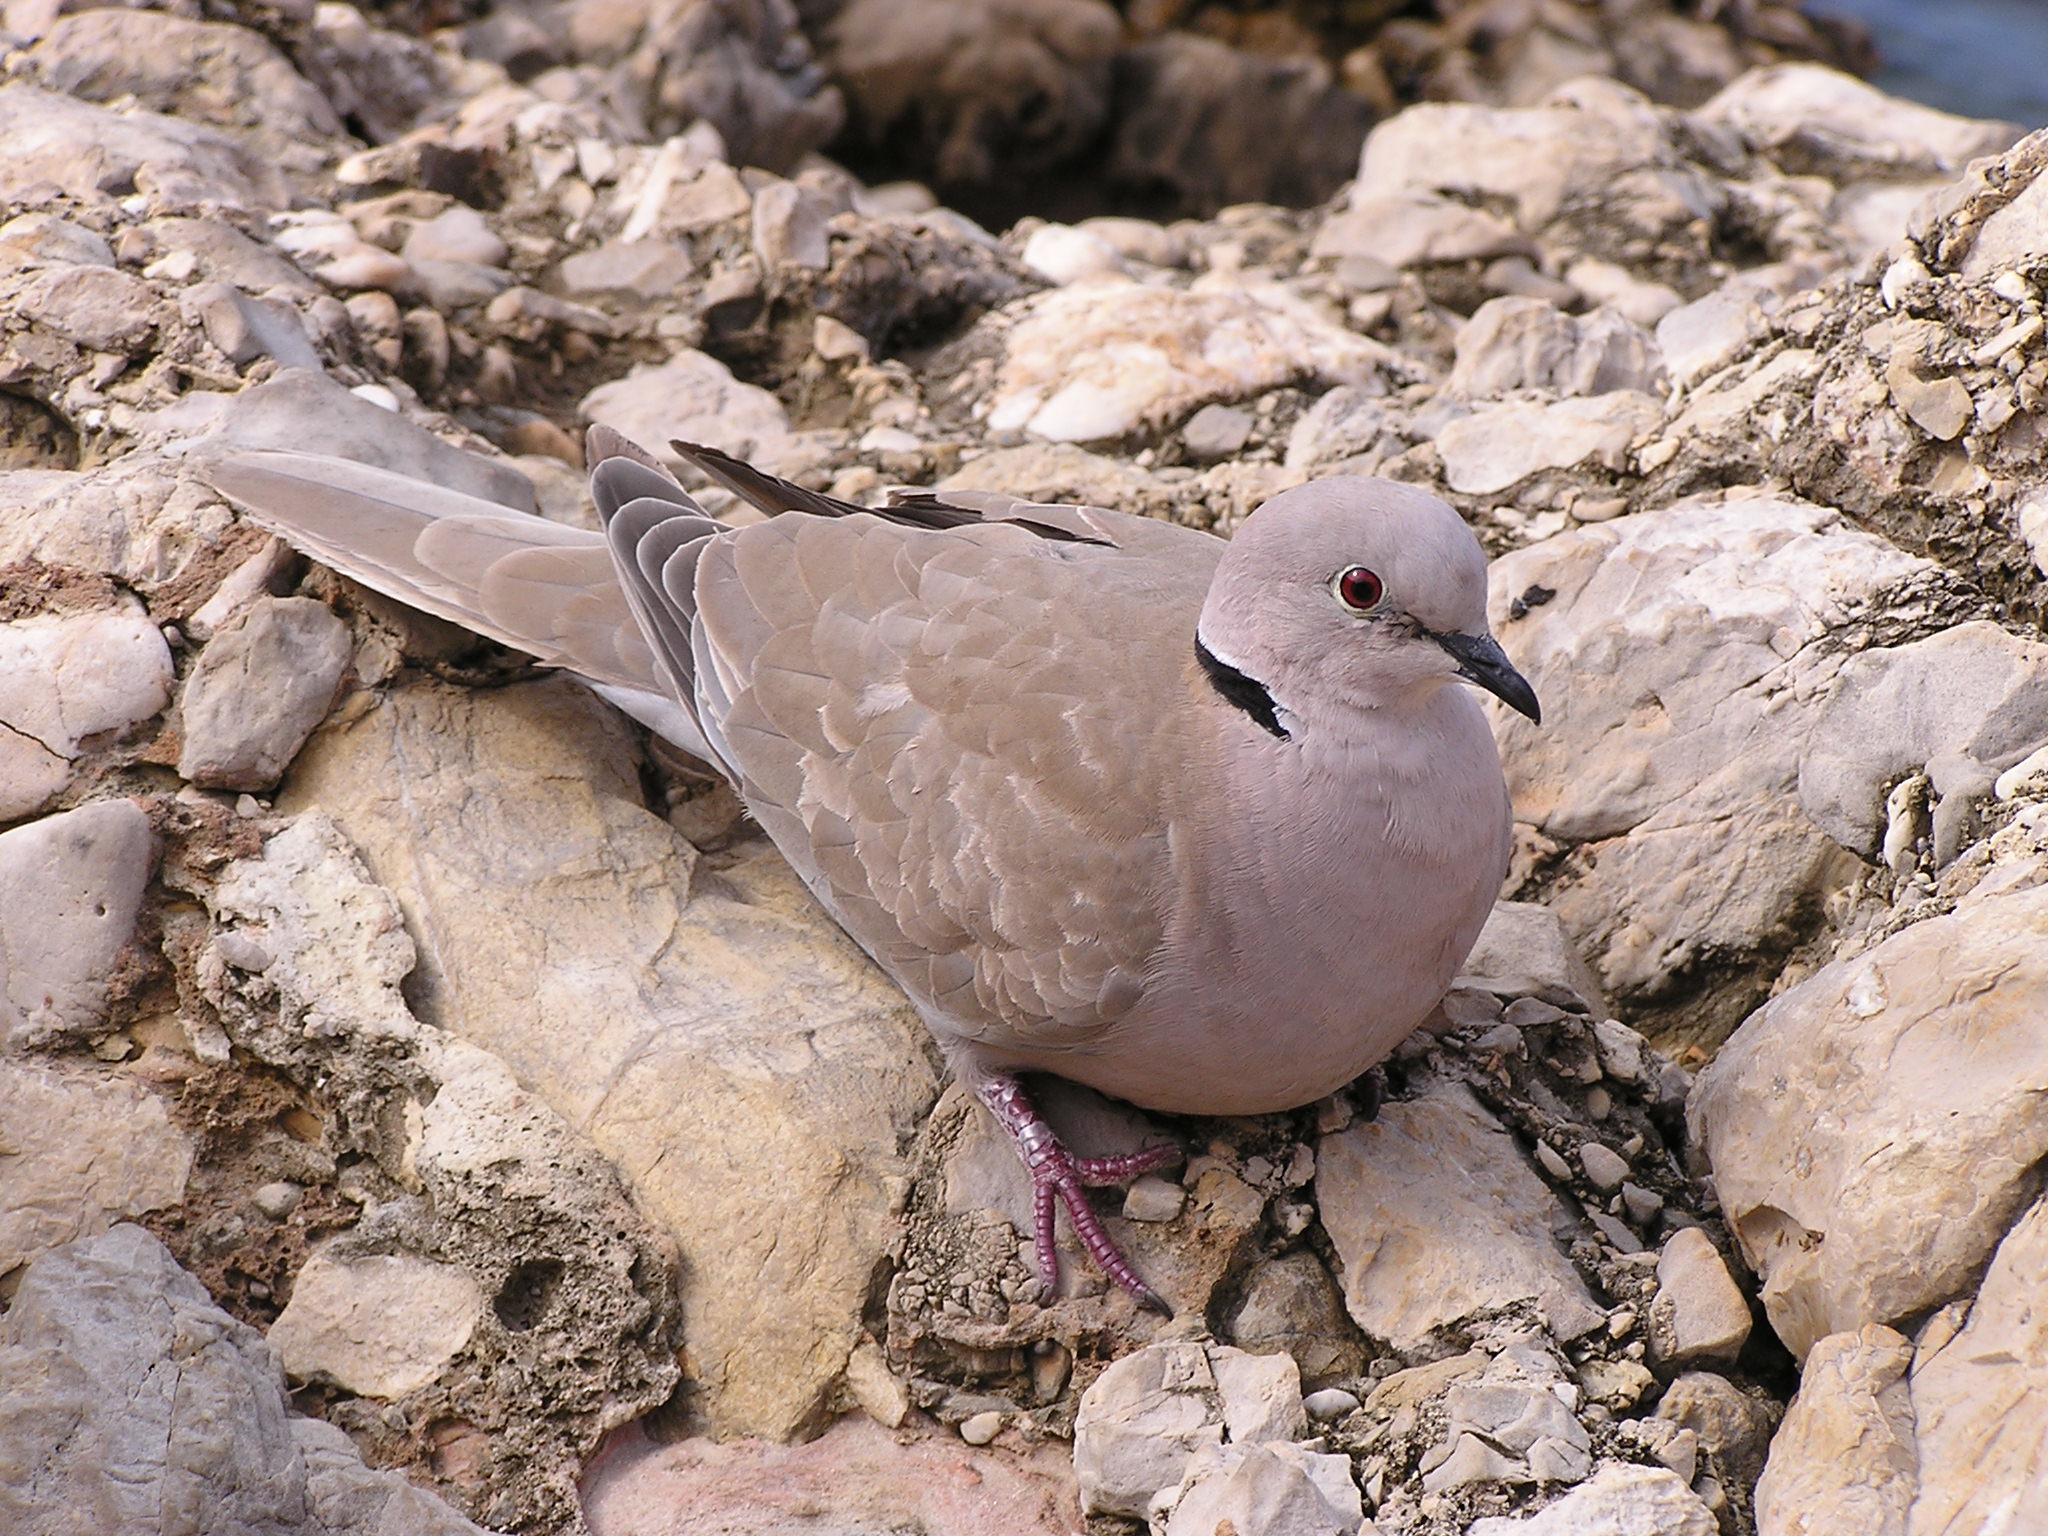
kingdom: Animalia
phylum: Chordata
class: Aves
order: Columbiformes
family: Columbidae
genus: Streptopelia
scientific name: Streptopelia decaocto
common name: Eurasian collared dove
